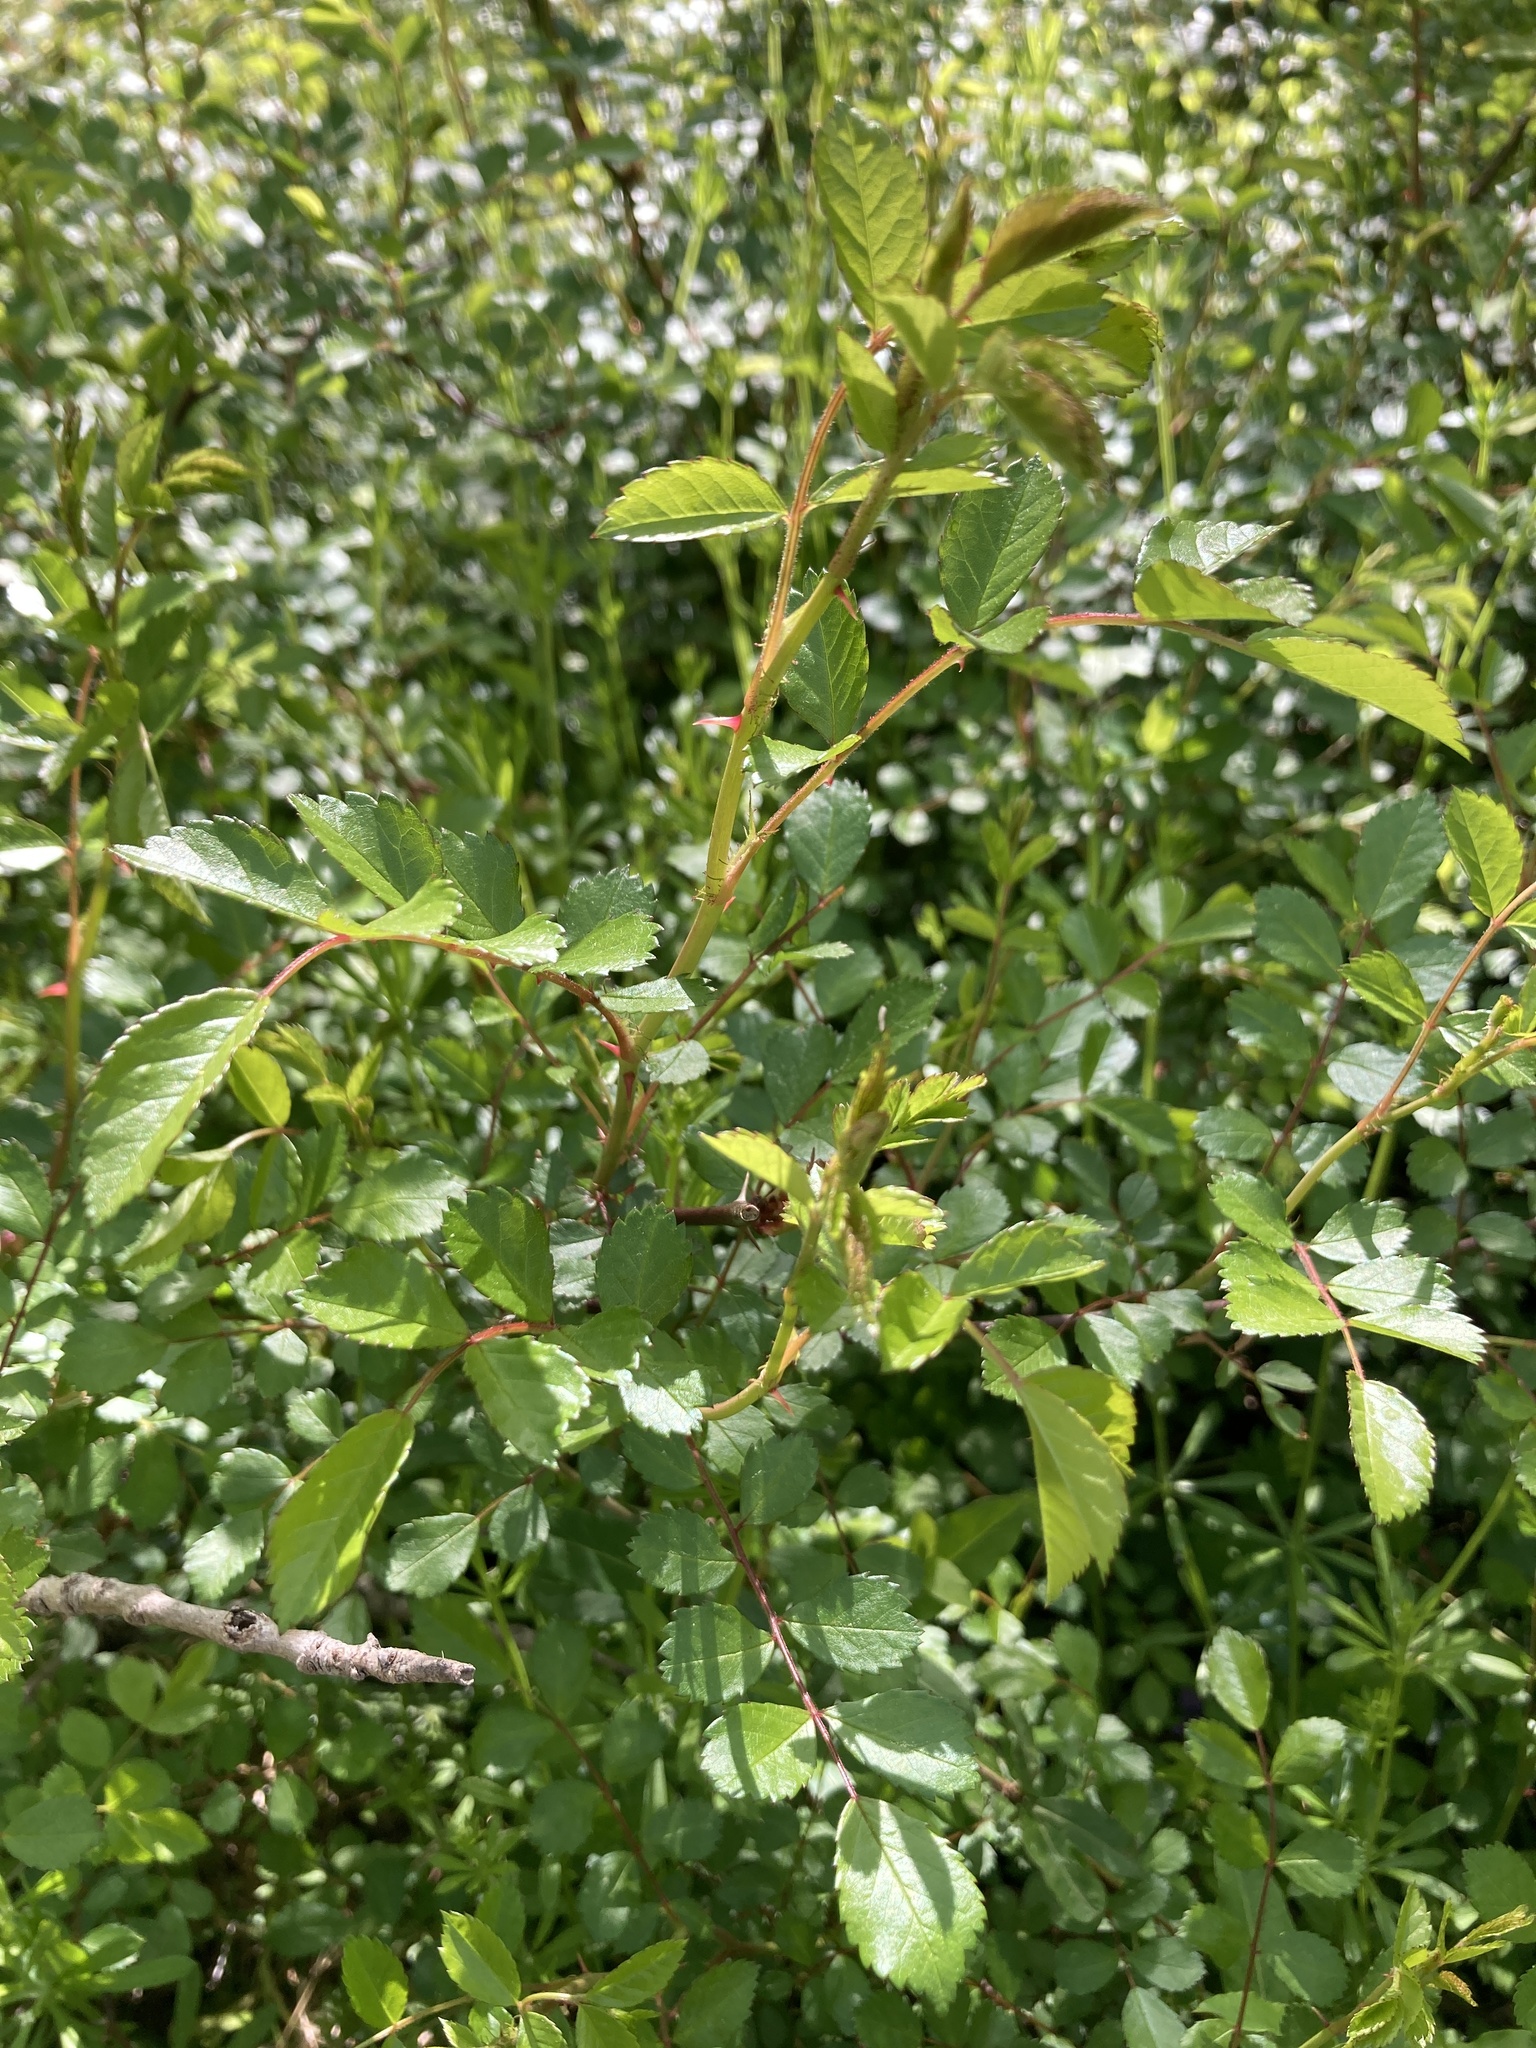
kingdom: Plantae
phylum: Tracheophyta
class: Magnoliopsida
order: Rosales
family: Rosaceae
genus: Rosa
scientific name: Rosa multiflora
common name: Multiflora rose
